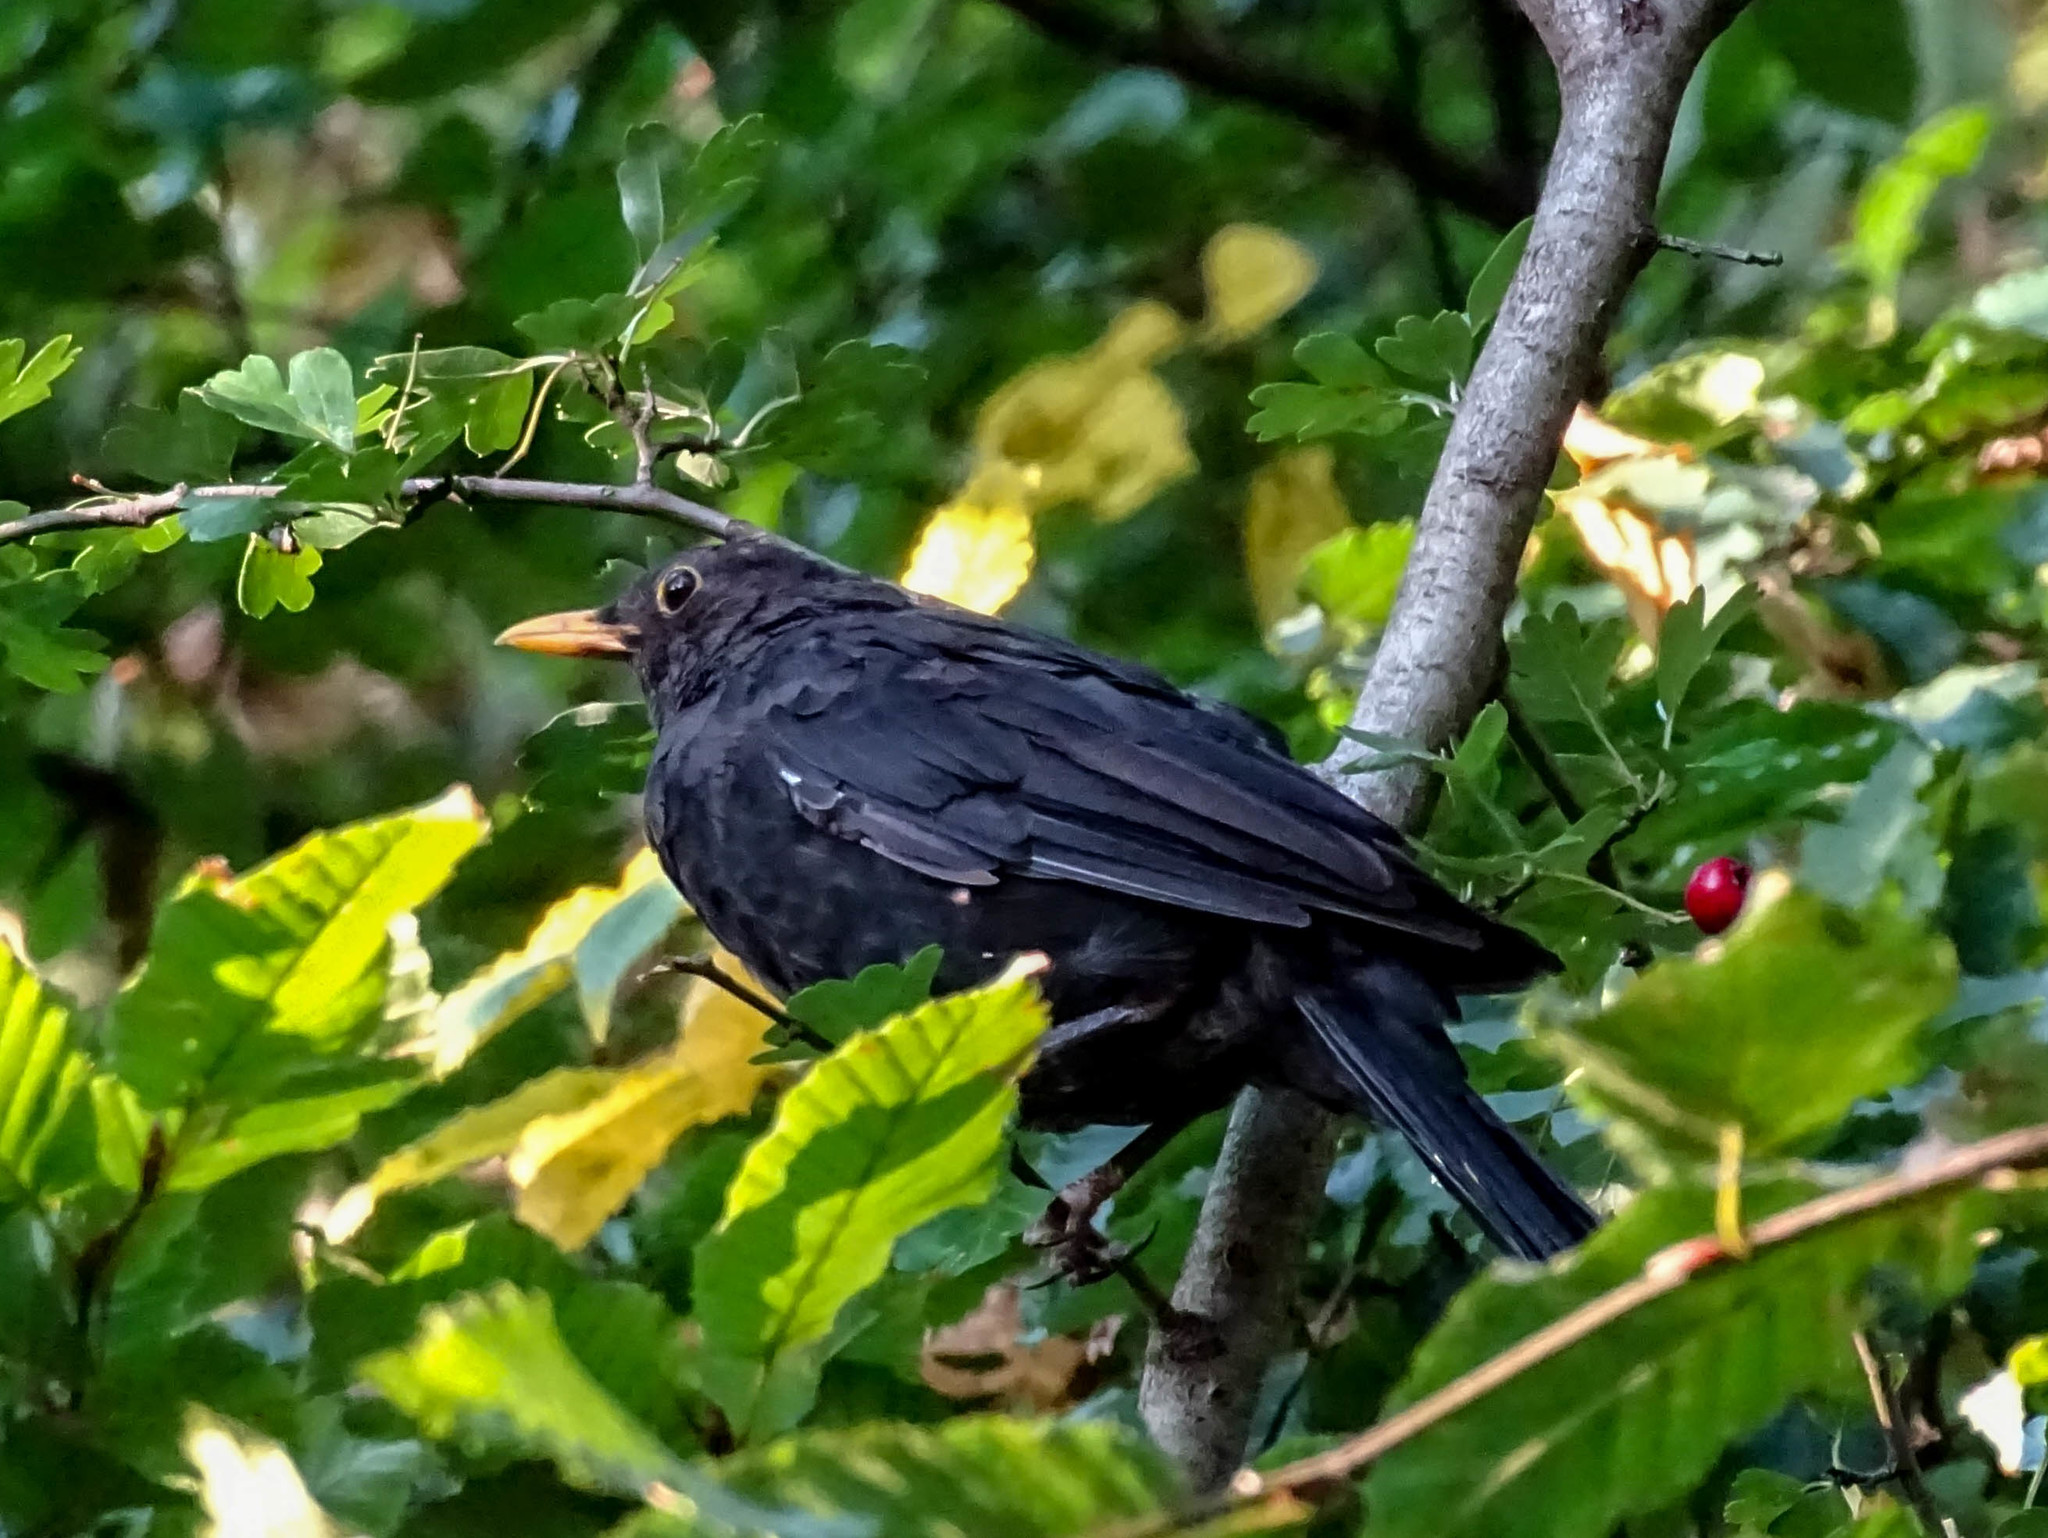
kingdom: Animalia
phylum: Chordata
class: Aves
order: Passeriformes
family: Turdidae
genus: Turdus
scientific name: Turdus merula
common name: Common blackbird
